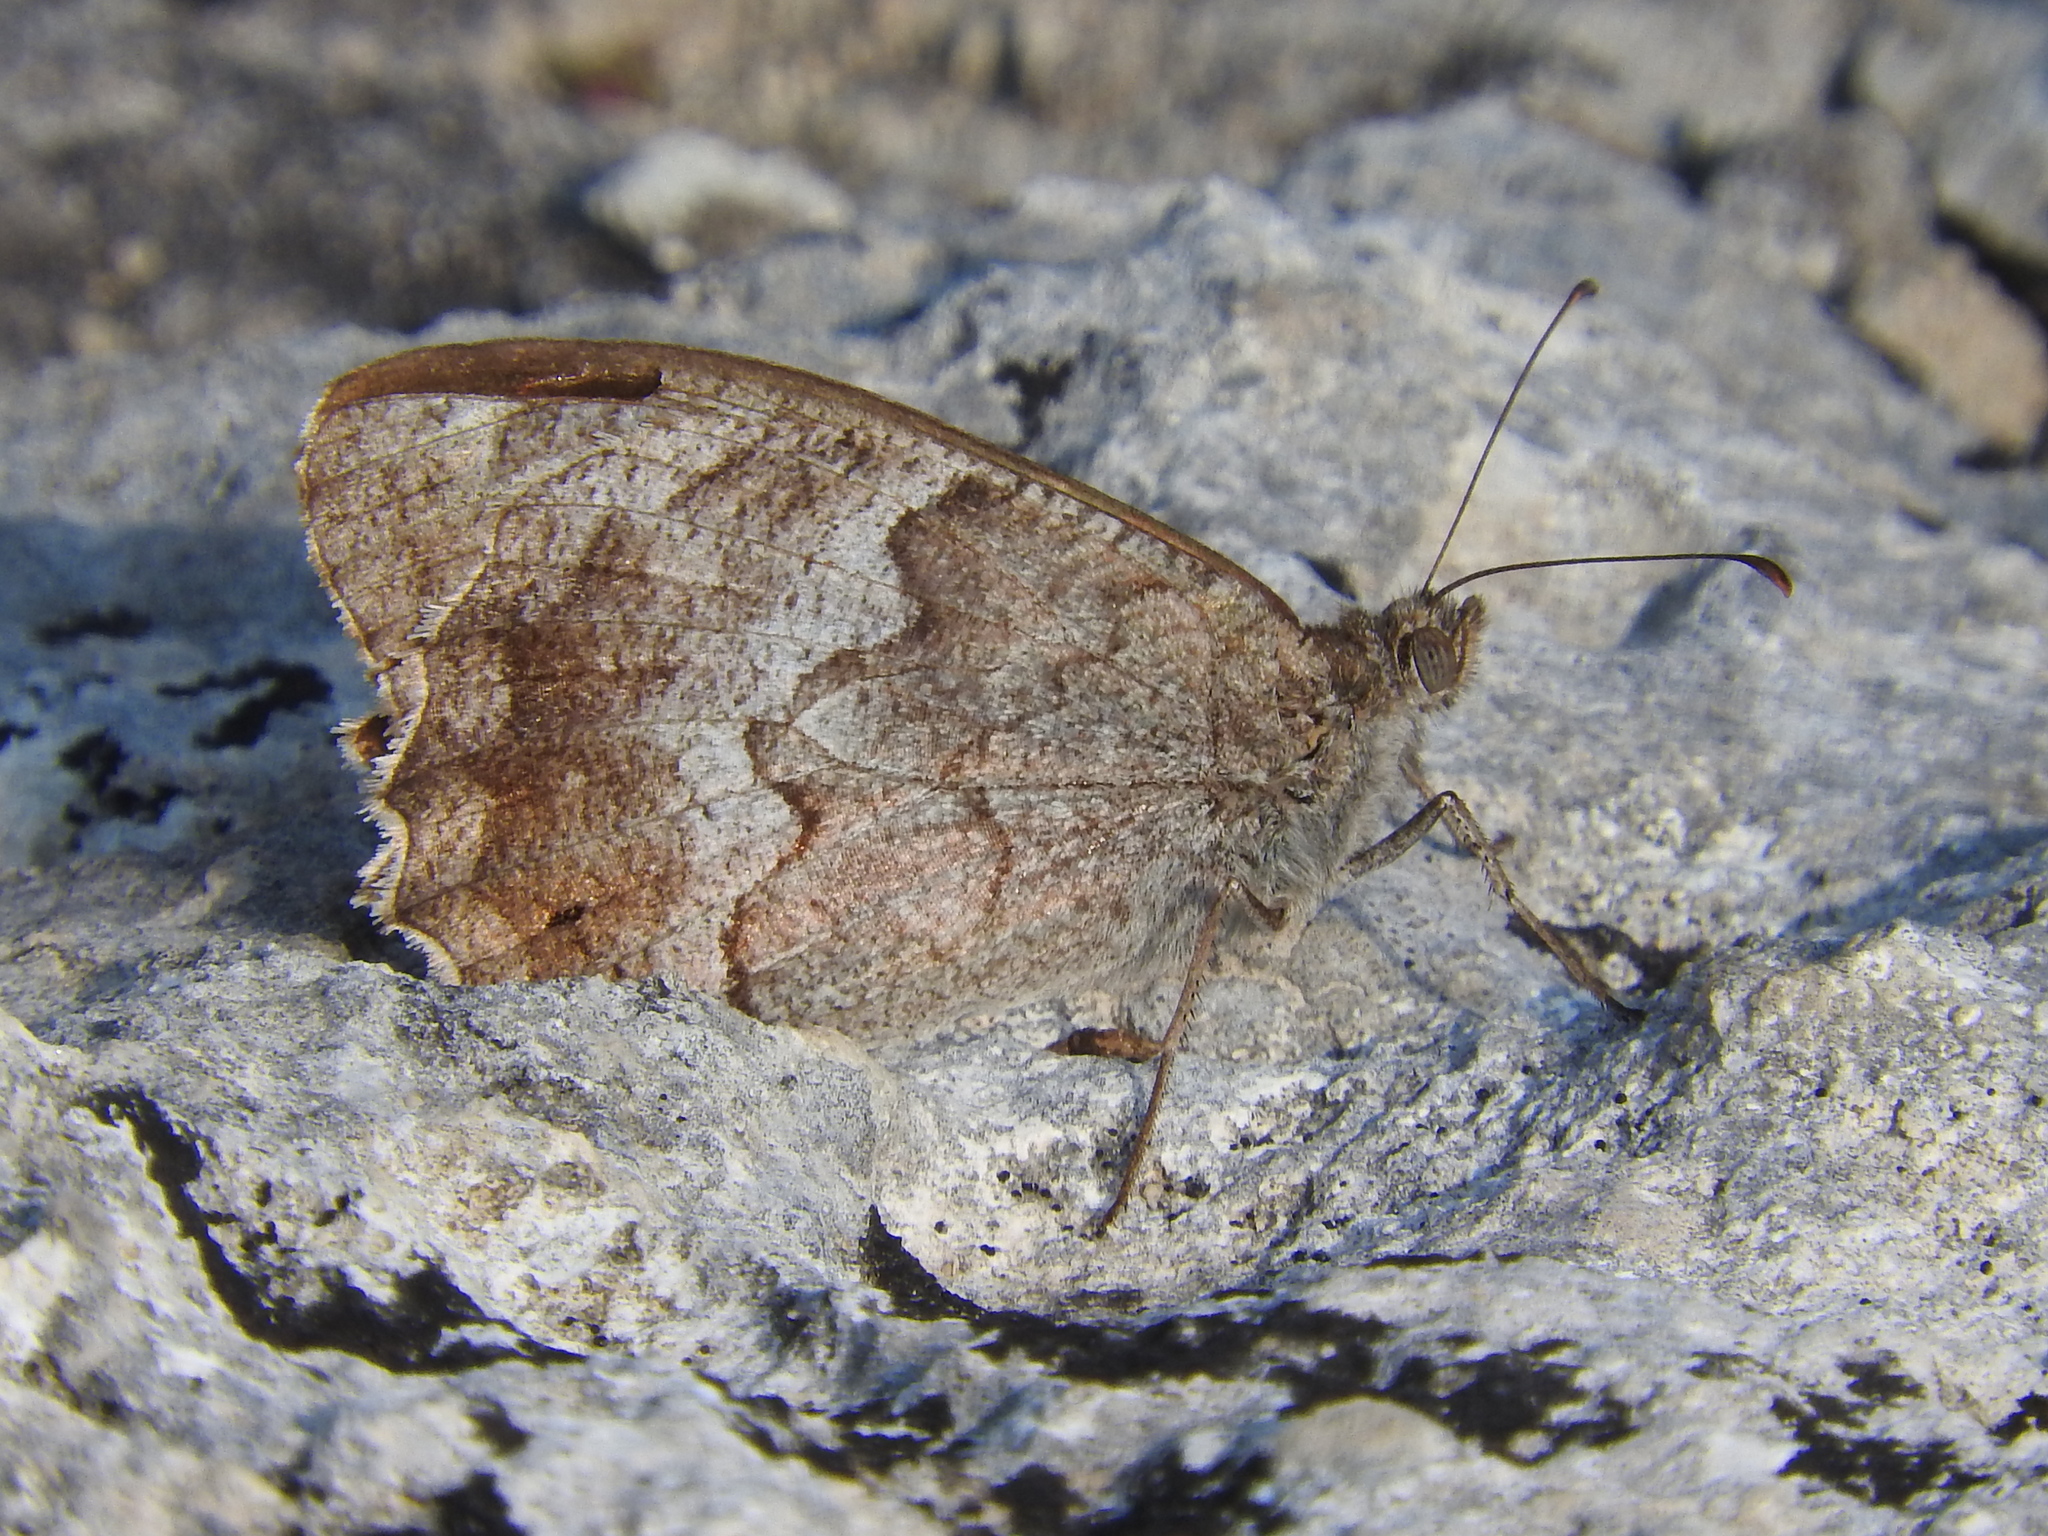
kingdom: Animalia
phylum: Arthropoda
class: Insecta
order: Lepidoptera
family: Nymphalidae
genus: Hipparchia
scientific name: Hipparchia statilinus
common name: Tree grayling
